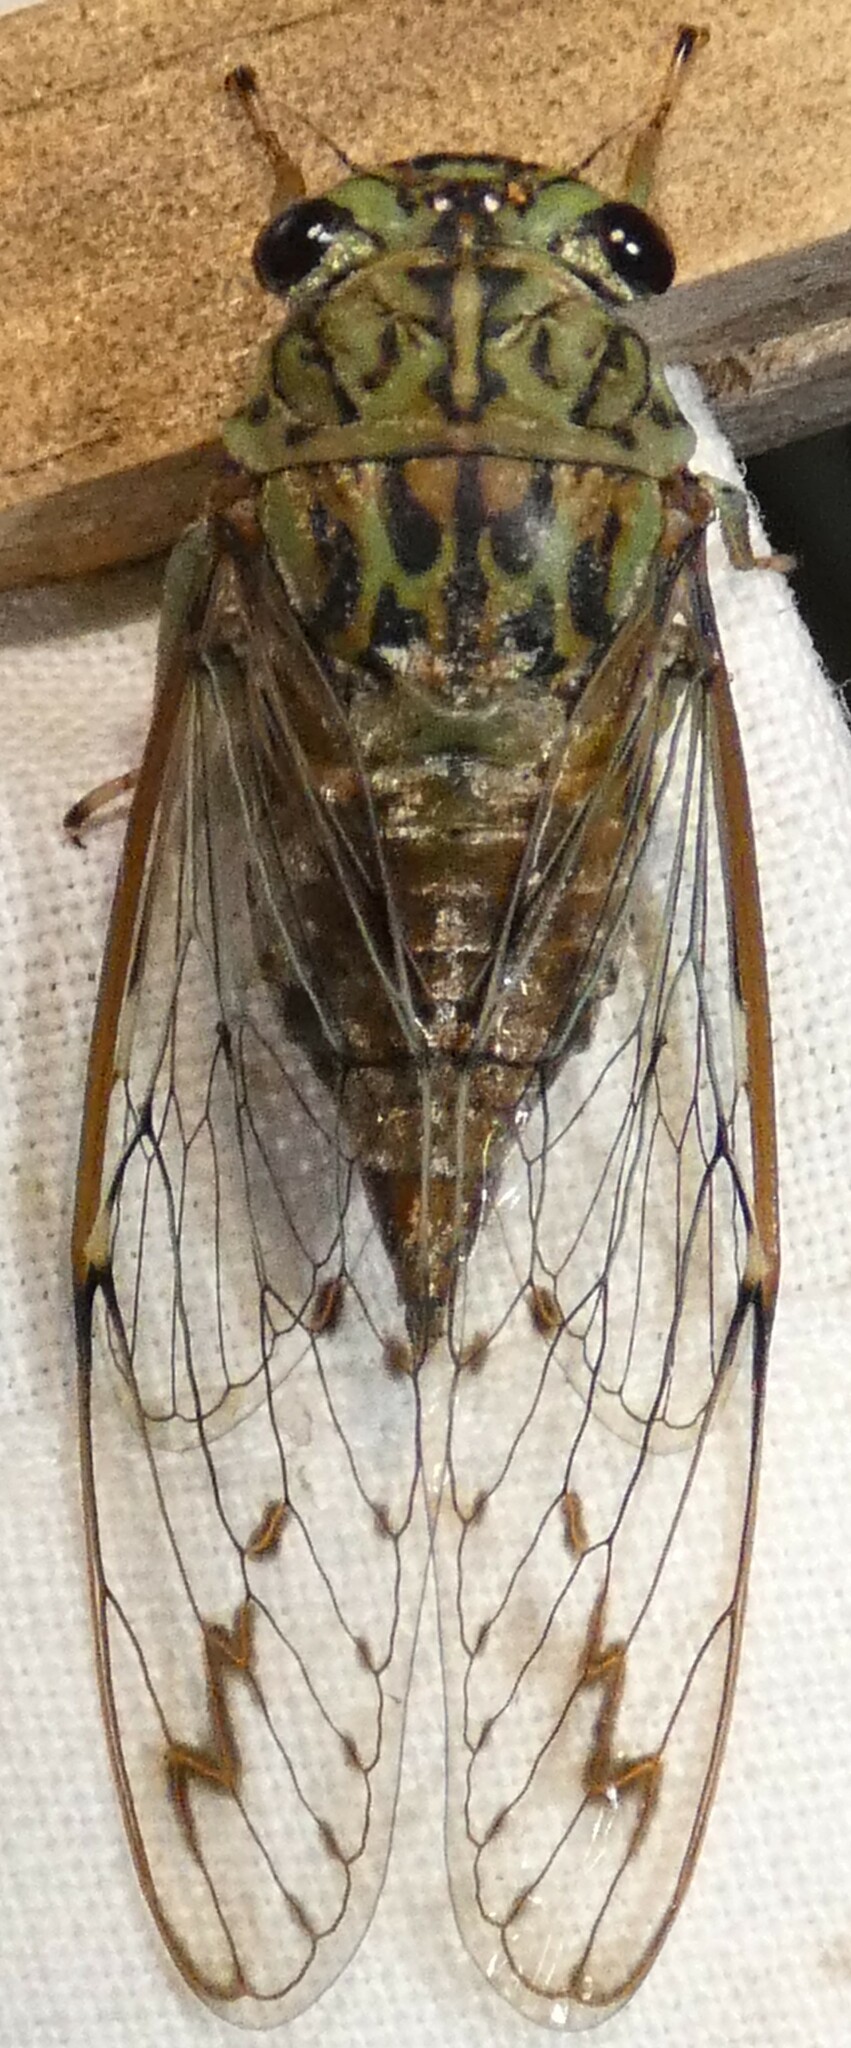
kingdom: Animalia
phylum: Arthropoda
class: Insecta
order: Hemiptera
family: Cicadidae
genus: Neocicada
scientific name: Neocicada hieroglyphica
